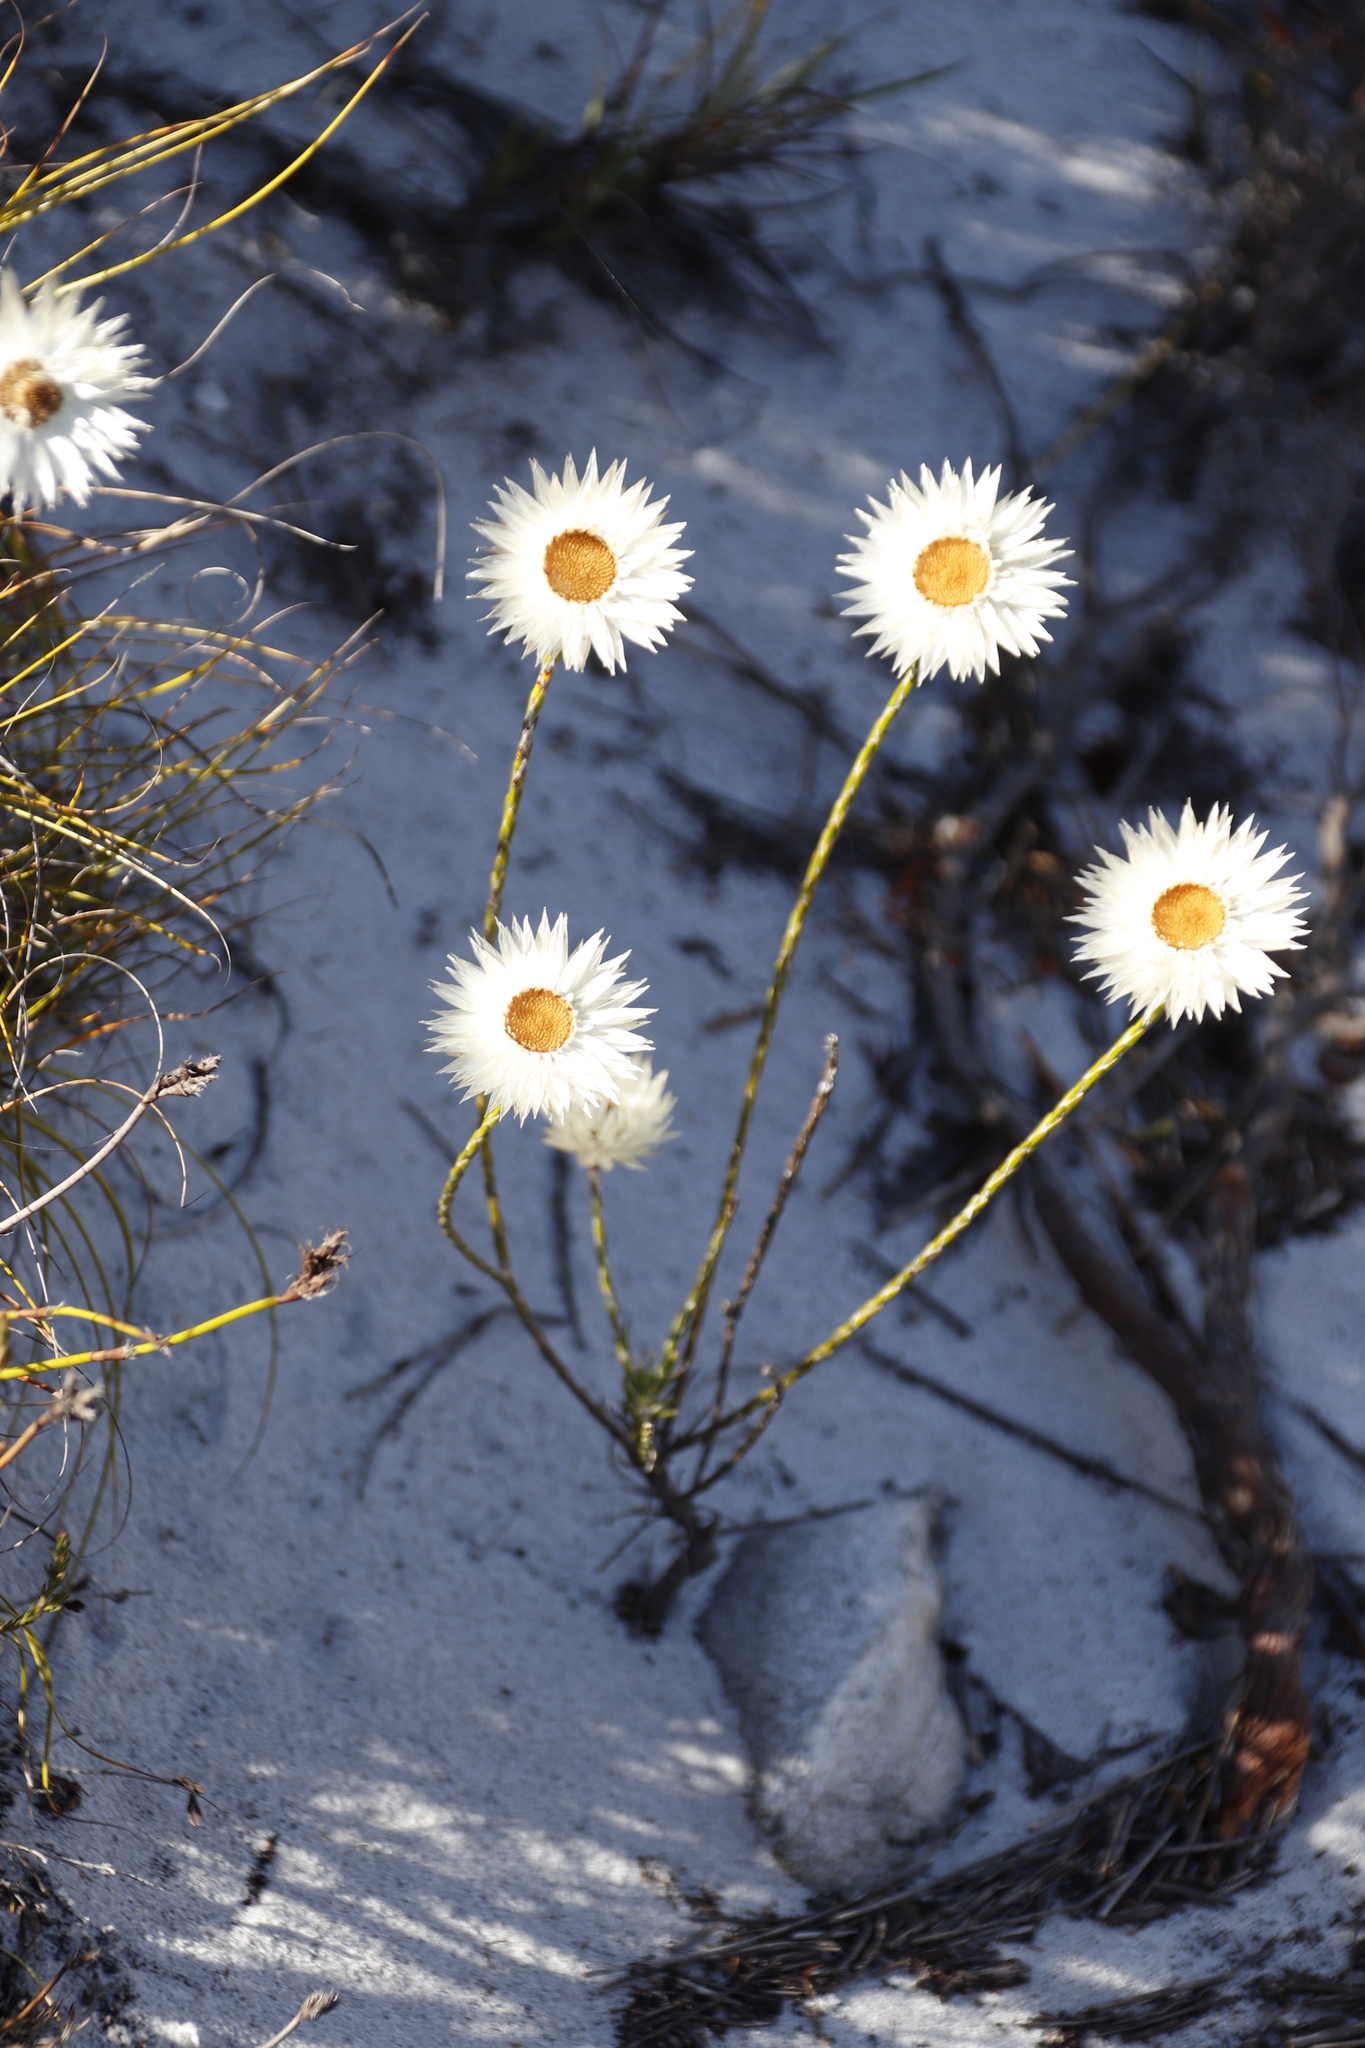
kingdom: Plantae
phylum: Tracheophyta
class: Magnoliopsida
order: Asterales
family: Asteraceae
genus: Edmondia
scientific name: Edmondia sesamoides
